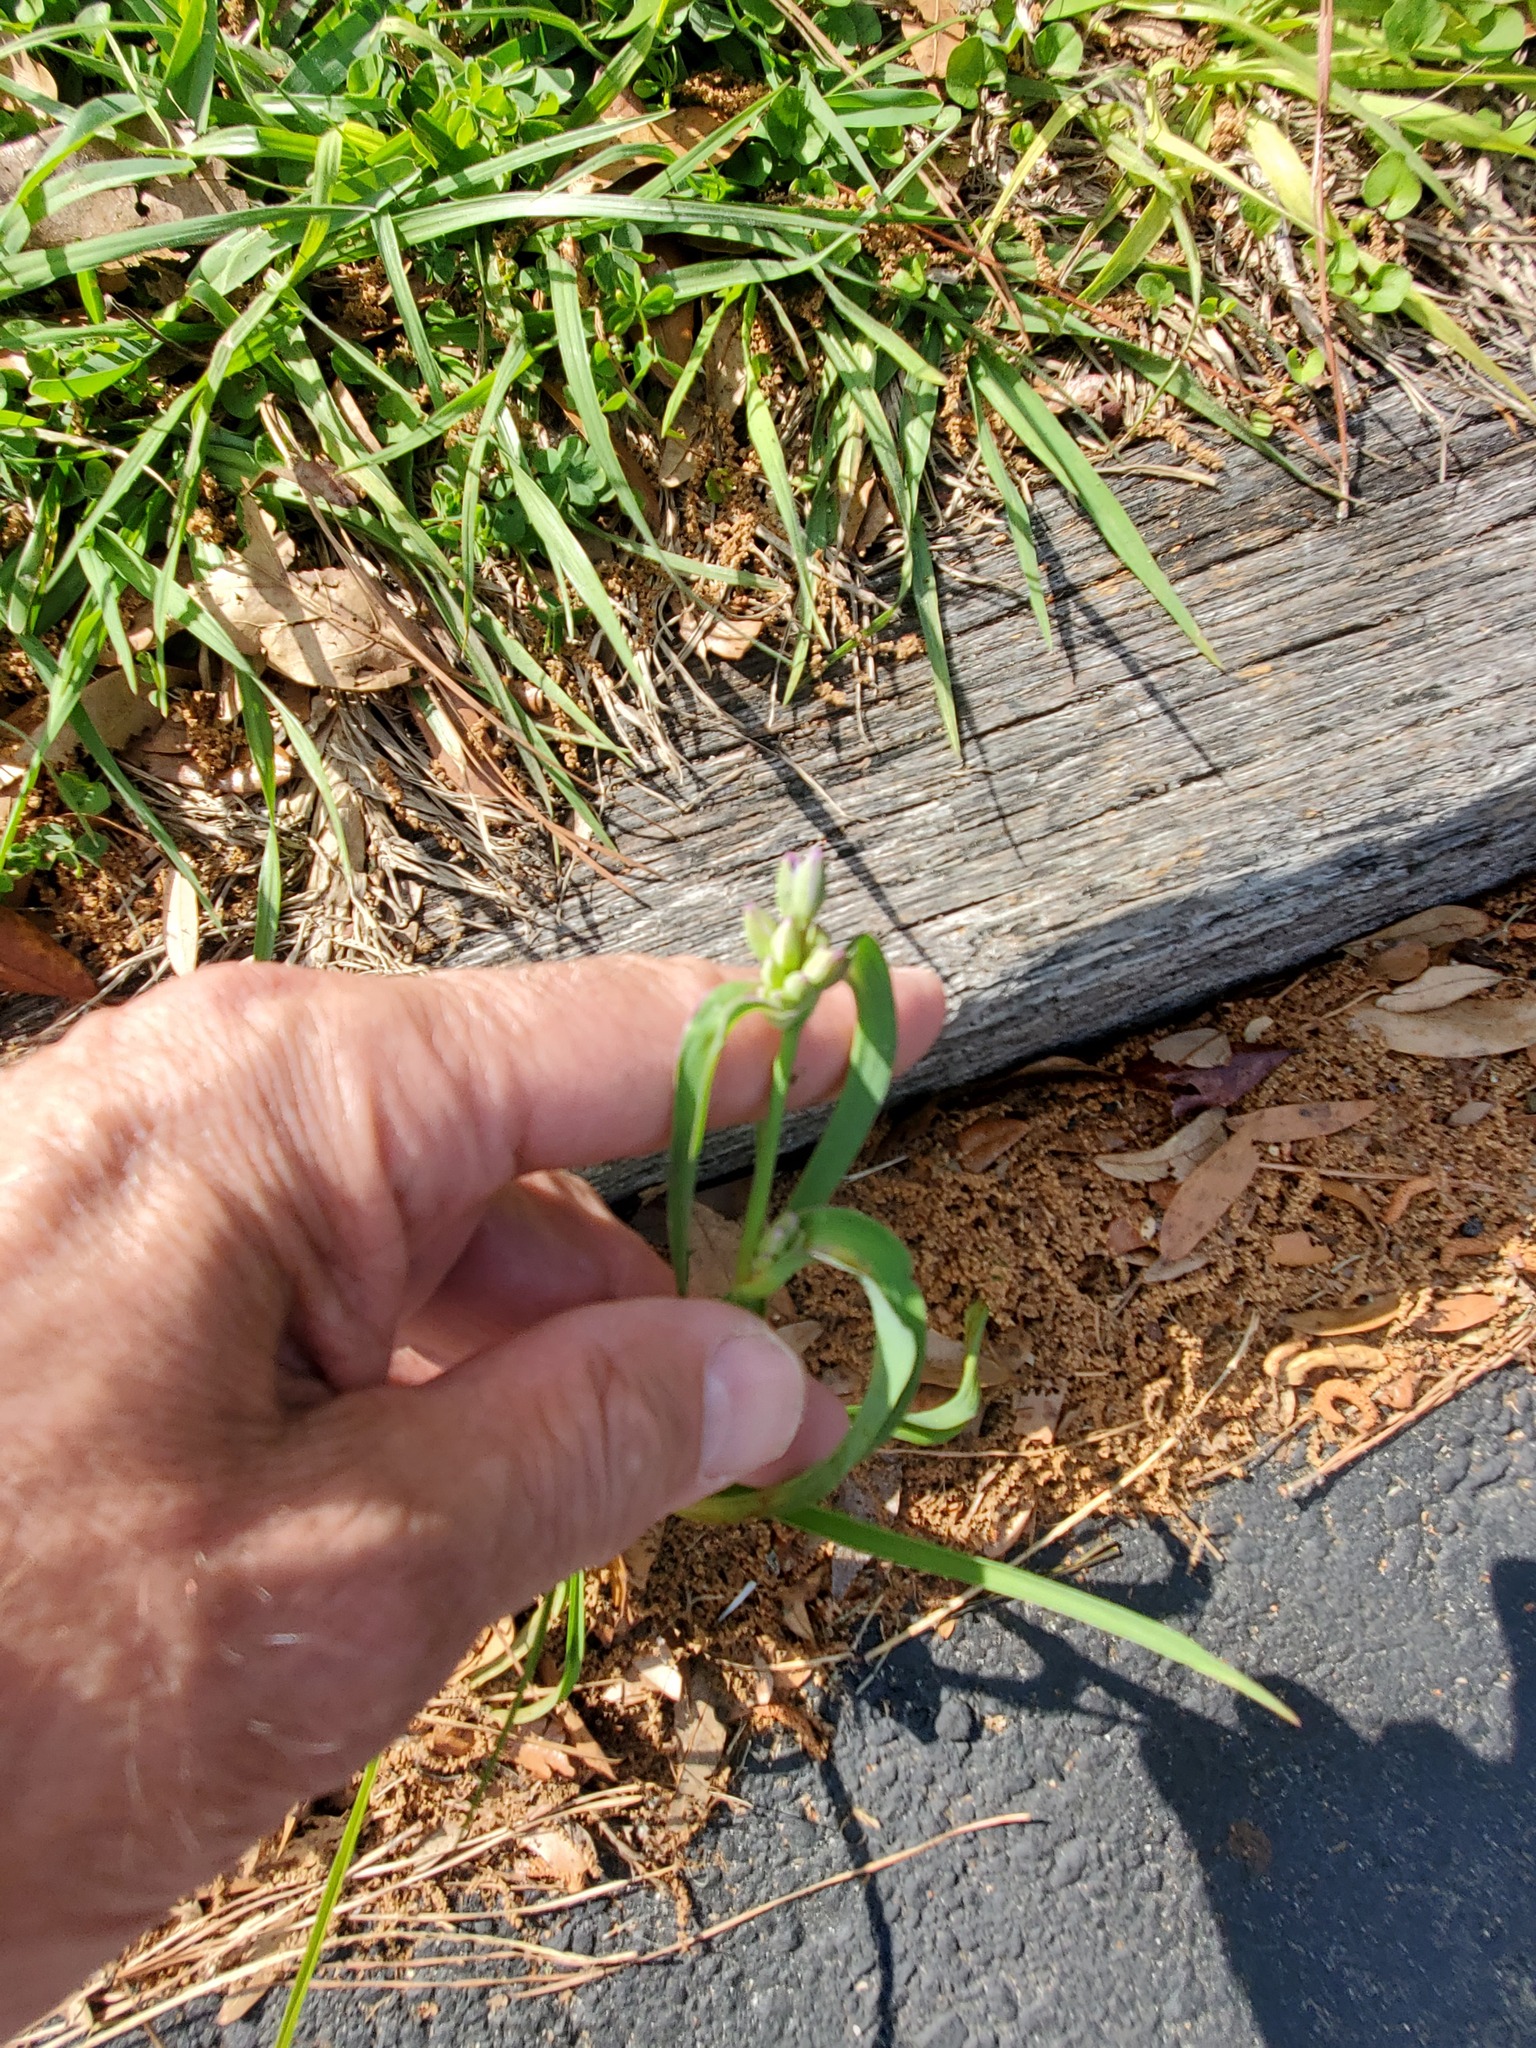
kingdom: Plantae
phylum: Tracheophyta
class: Liliopsida
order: Commelinales
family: Commelinaceae
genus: Tradescantia
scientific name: Tradescantia ohiensis
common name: Ohio spiderwort
